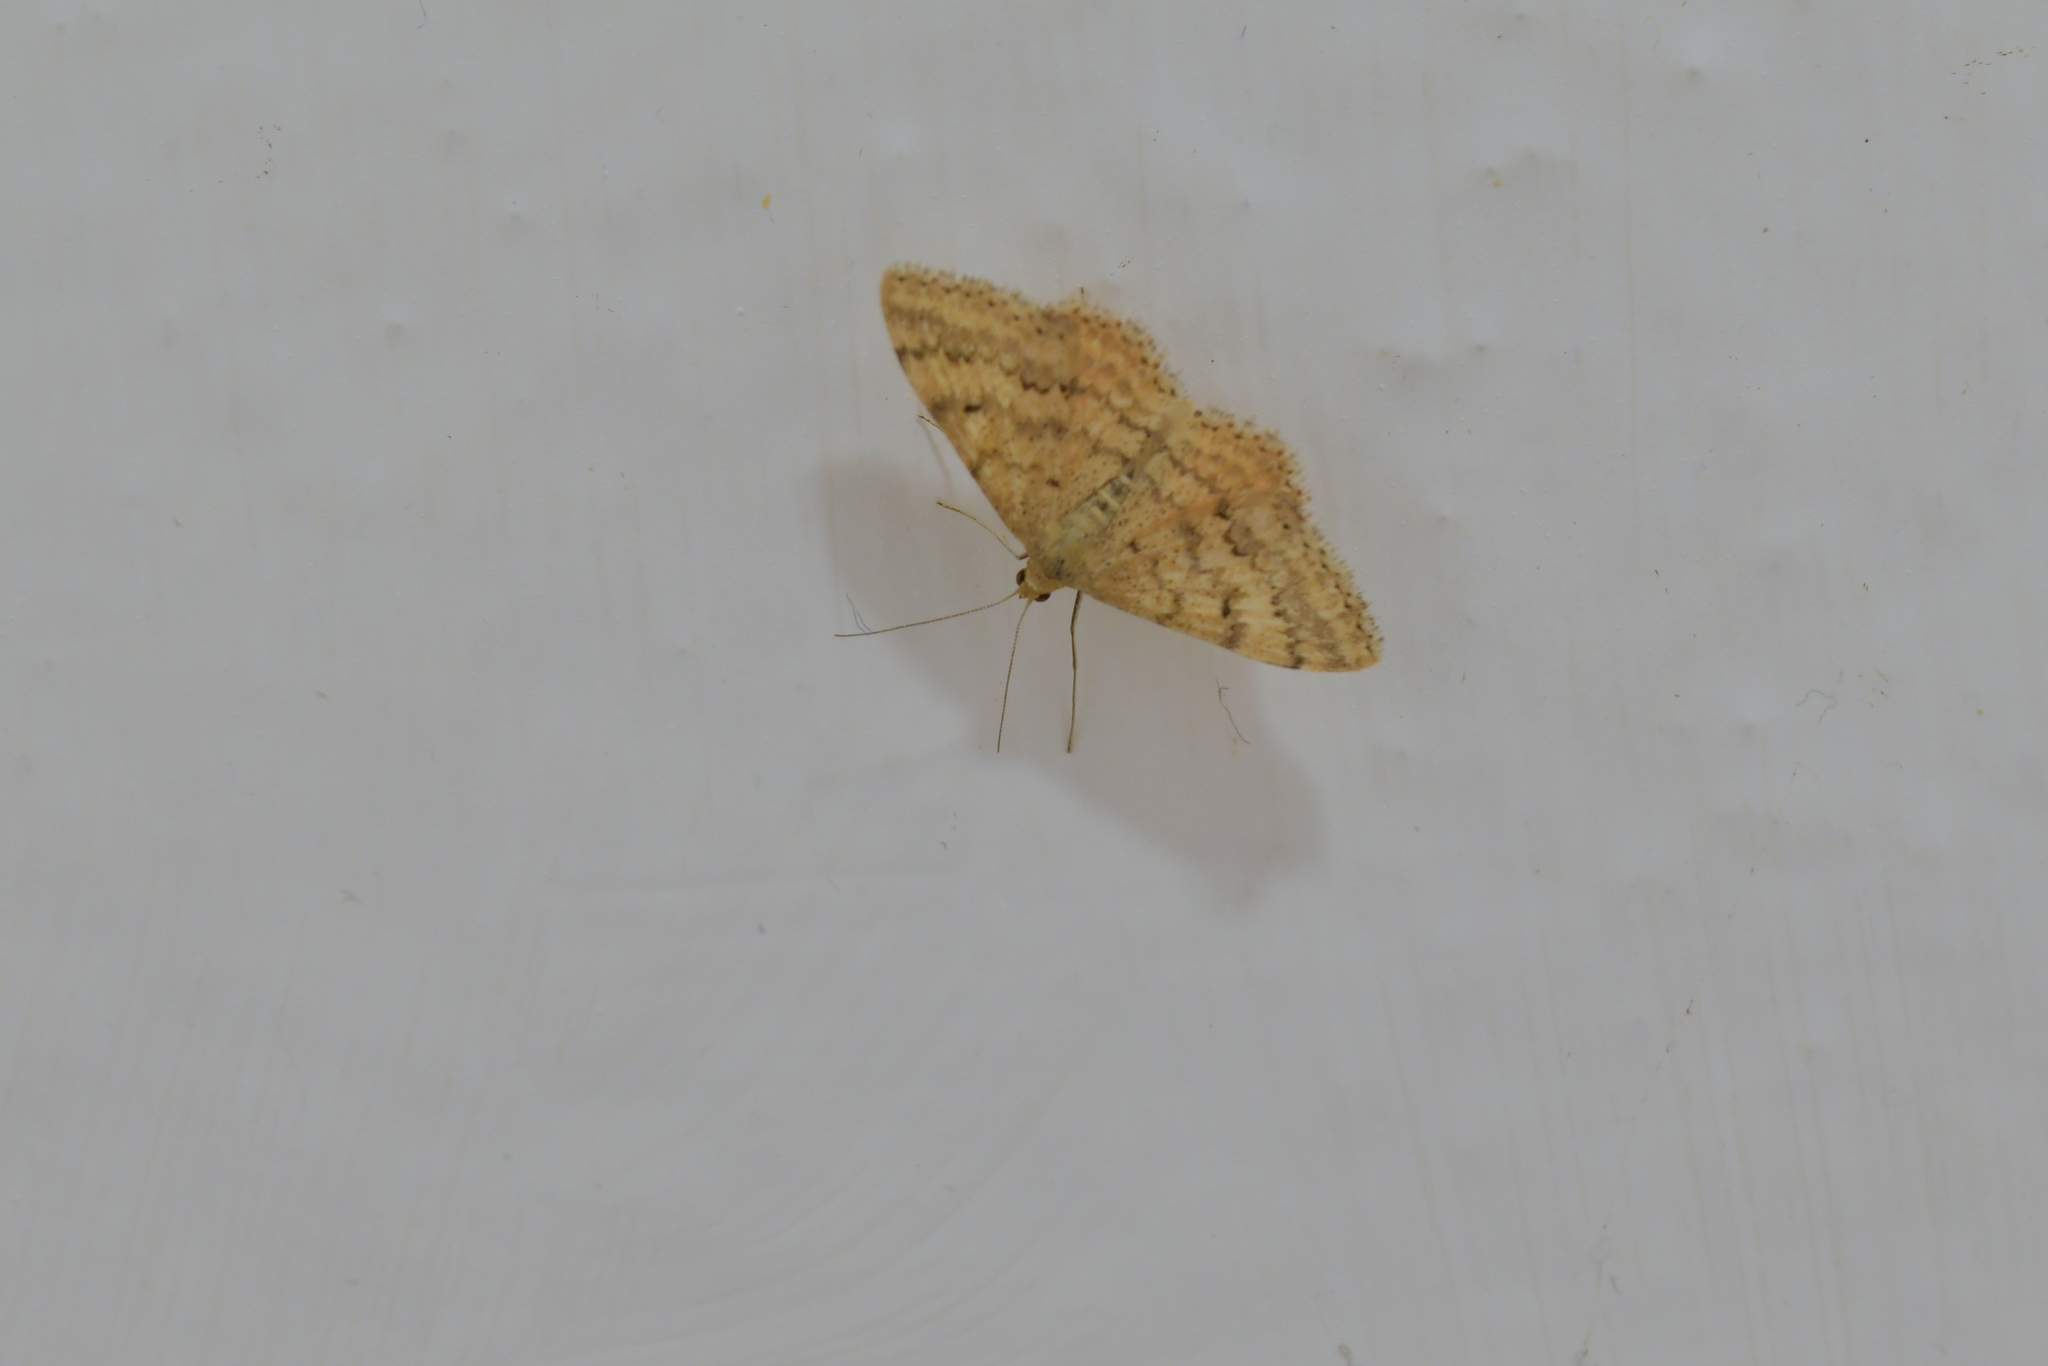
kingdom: Animalia
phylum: Arthropoda
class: Insecta
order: Lepidoptera
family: Geometridae
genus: Scopula
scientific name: Scopula rubraria
